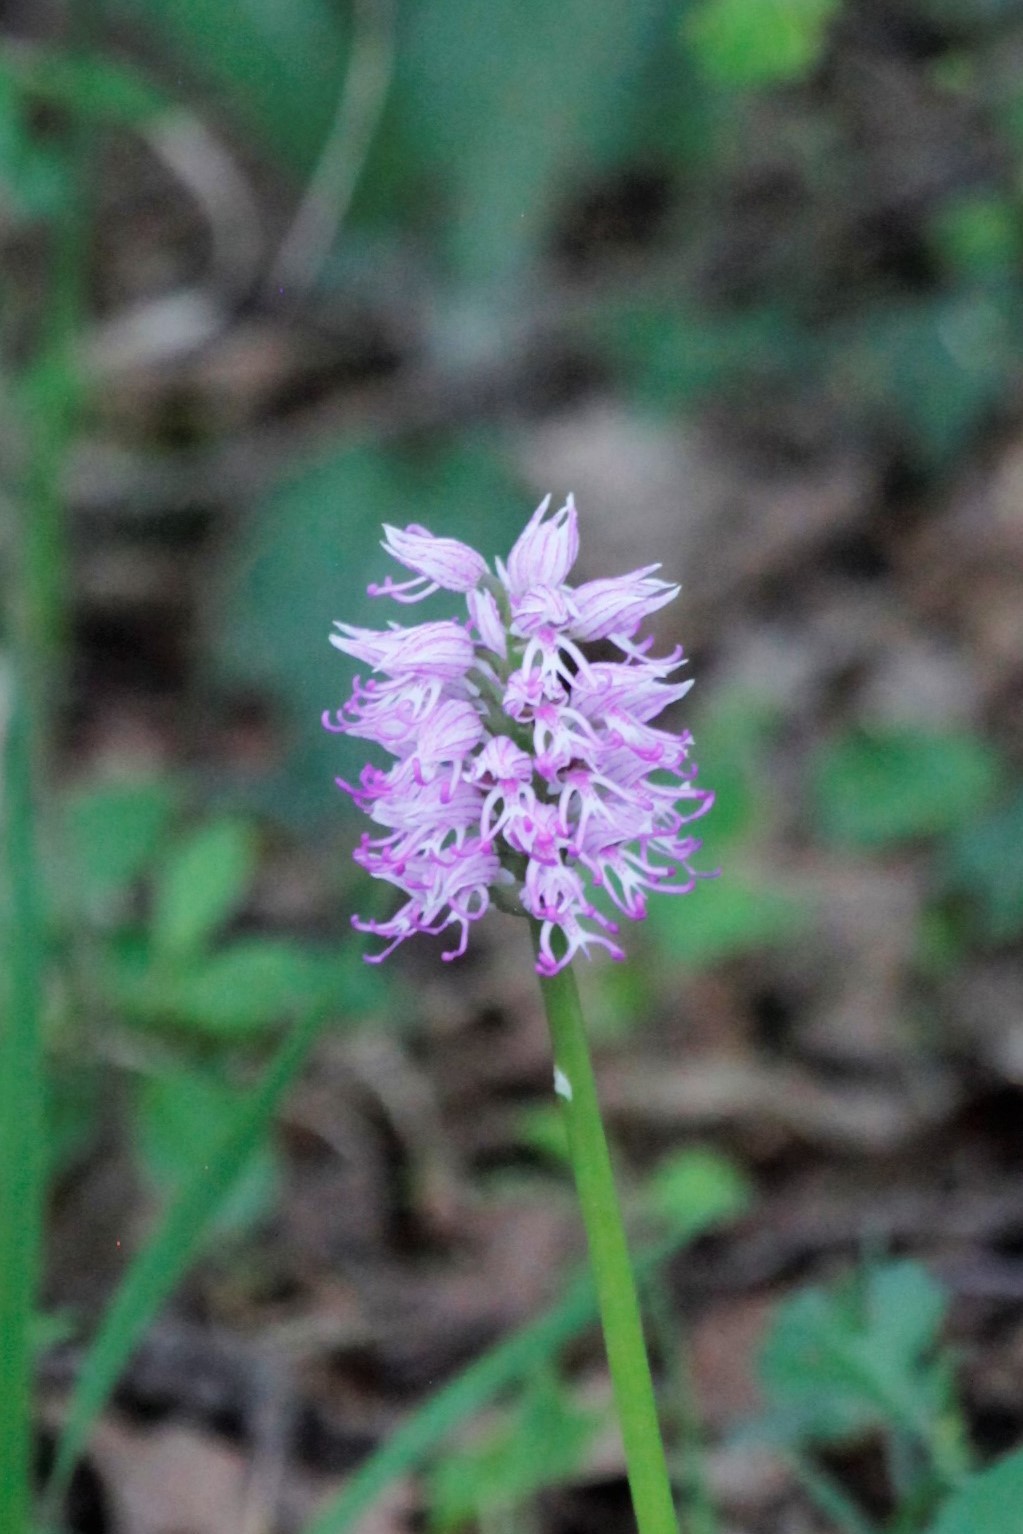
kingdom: Plantae
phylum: Tracheophyta
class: Liliopsida
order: Asparagales
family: Orchidaceae
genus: Orchis
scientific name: Orchis simia
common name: Monkey orchid
